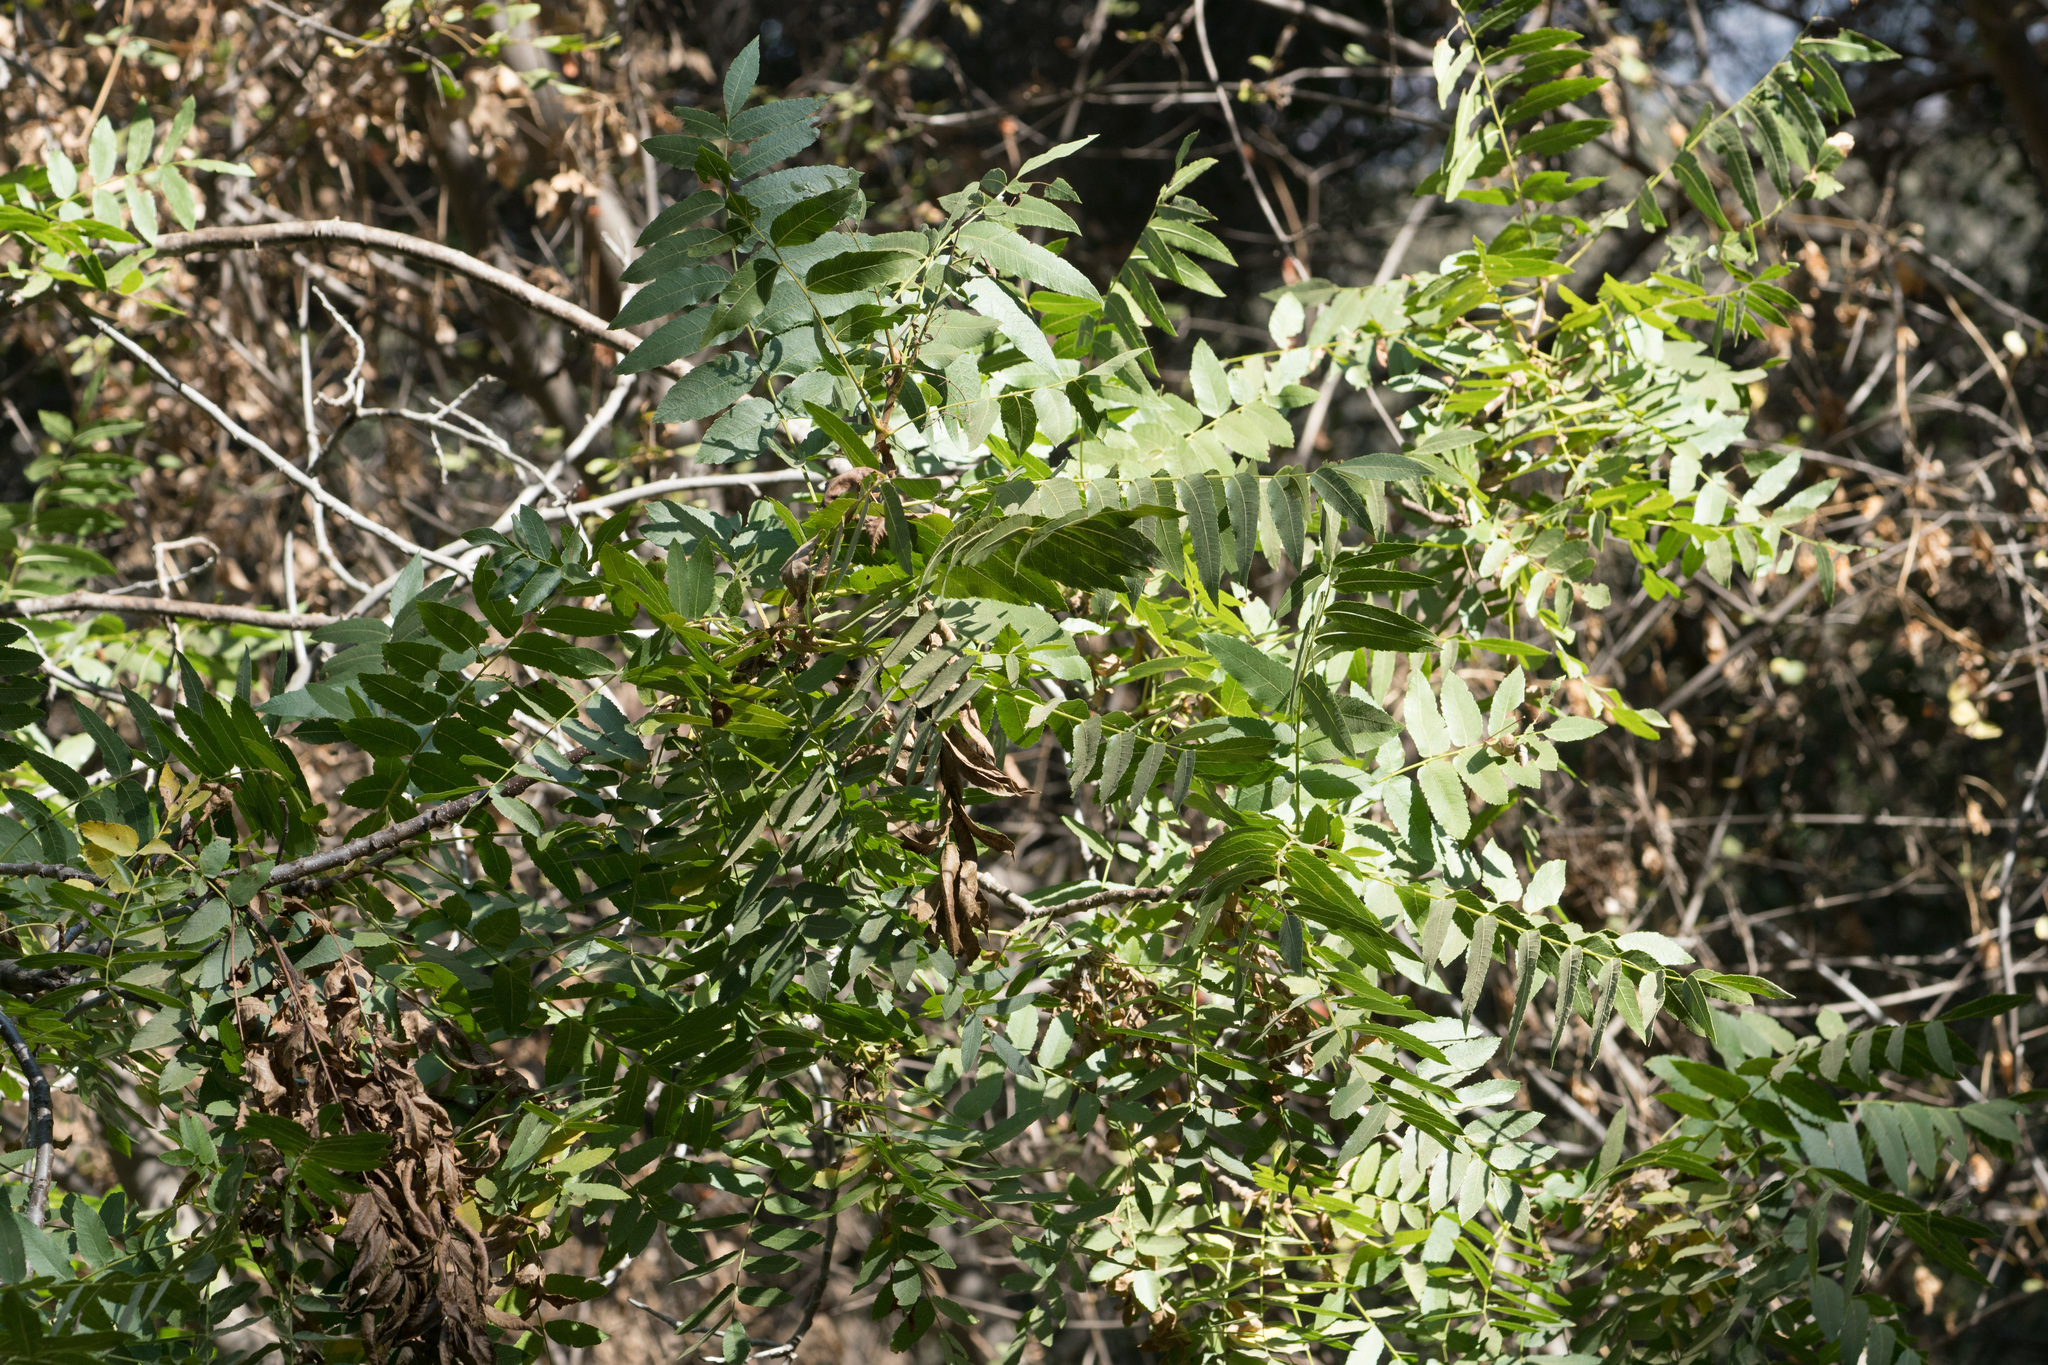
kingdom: Plantae
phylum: Tracheophyta
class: Magnoliopsida
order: Fagales
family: Juglandaceae
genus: Juglans
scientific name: Juglans californica
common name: Southern california black walnut
